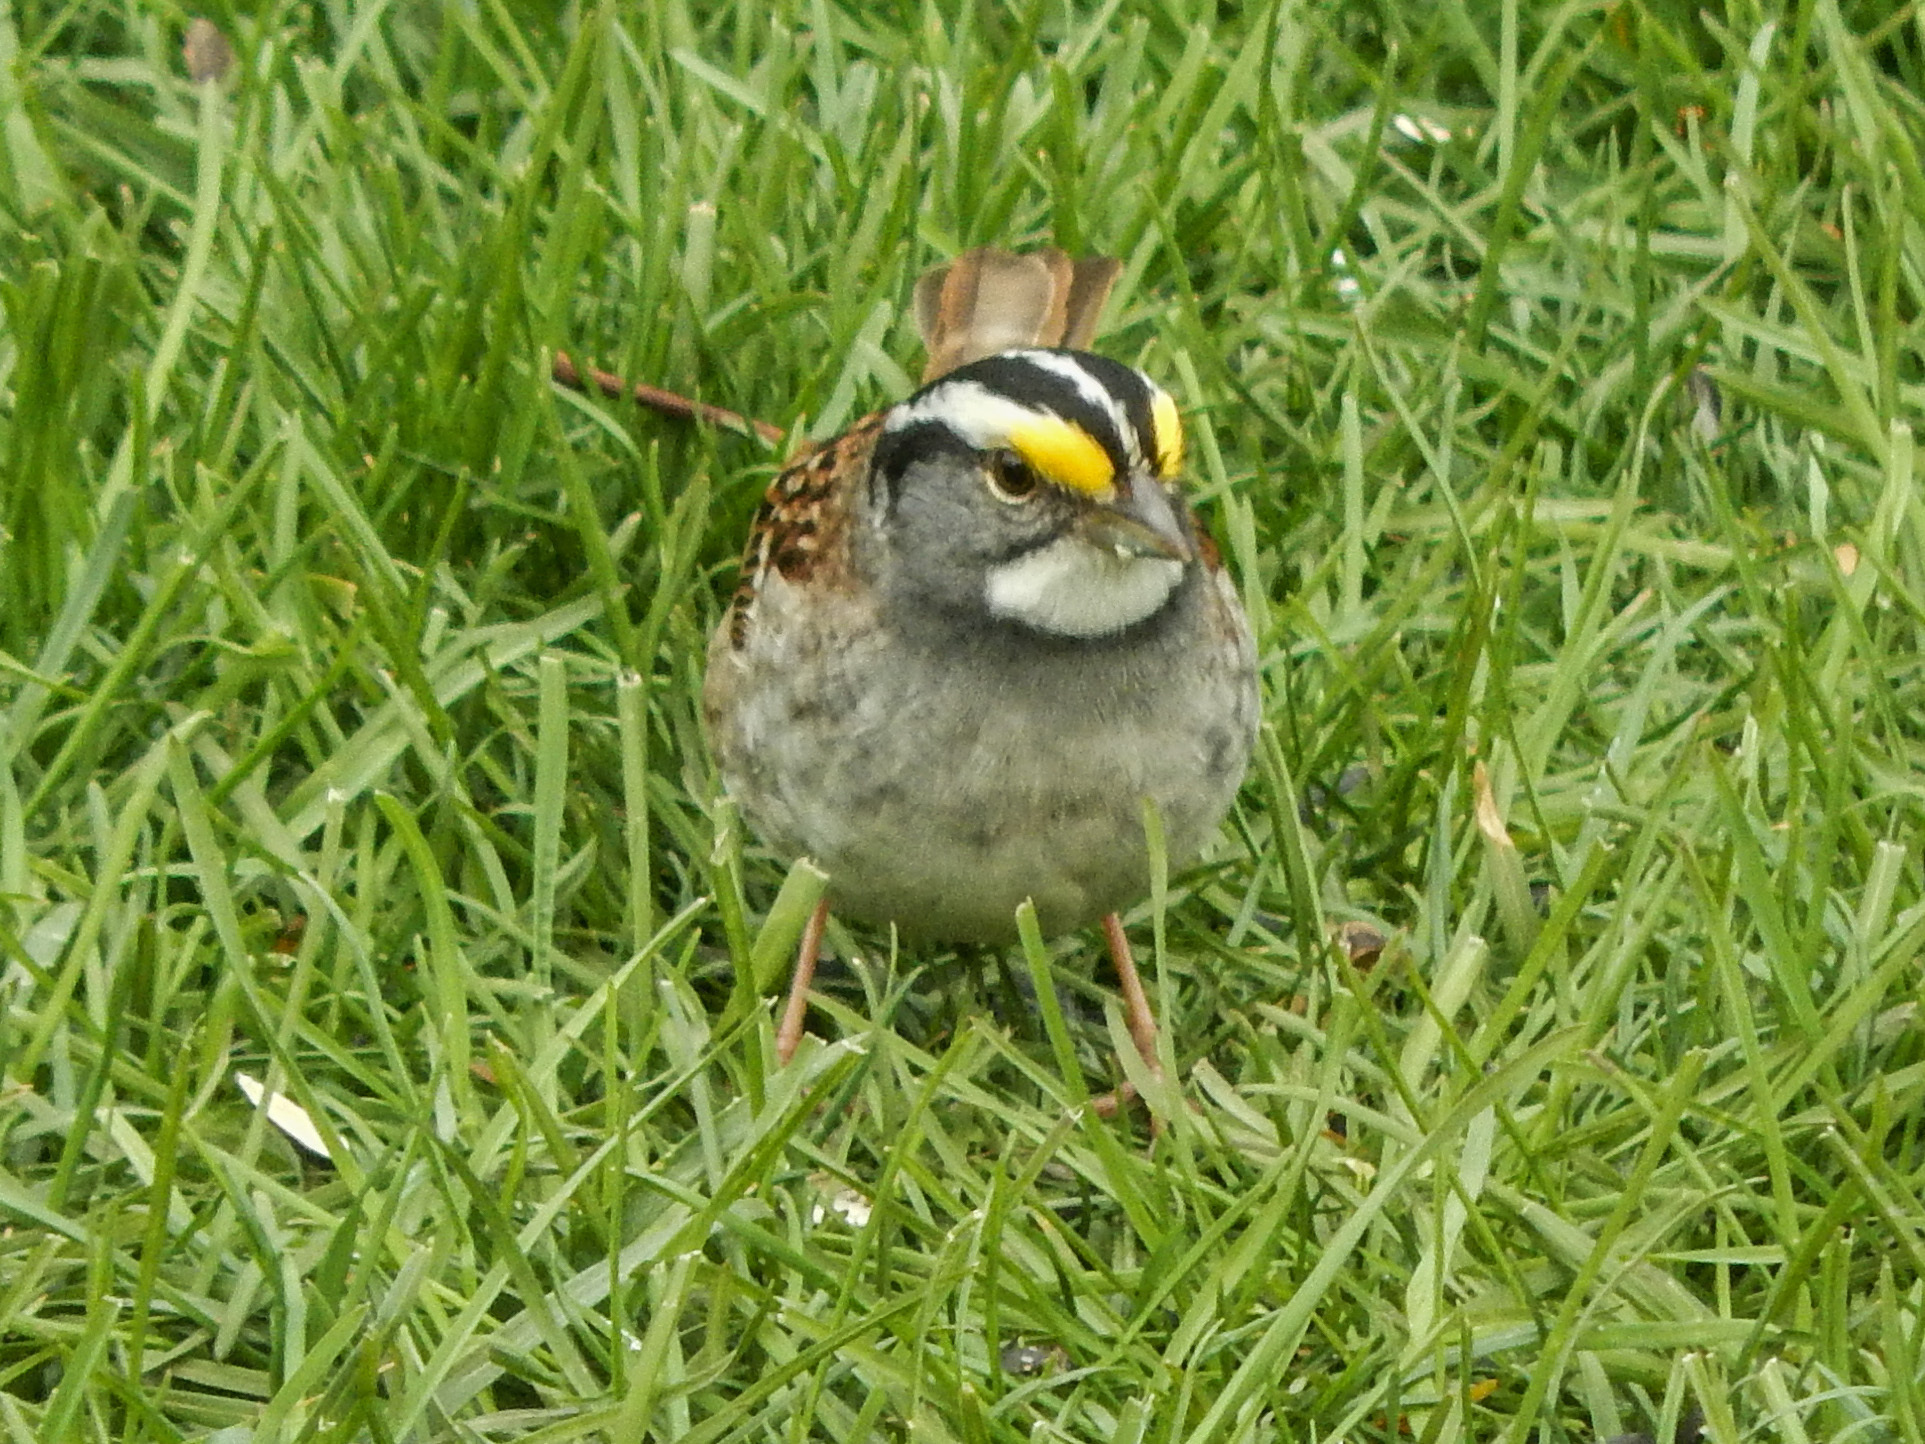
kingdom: Animalia
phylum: Chordata
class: Aves
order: Passeriformes
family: Passerellidae
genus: Zonotrichia
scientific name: Zonotrichia albicollis
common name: White-throated sparrow
